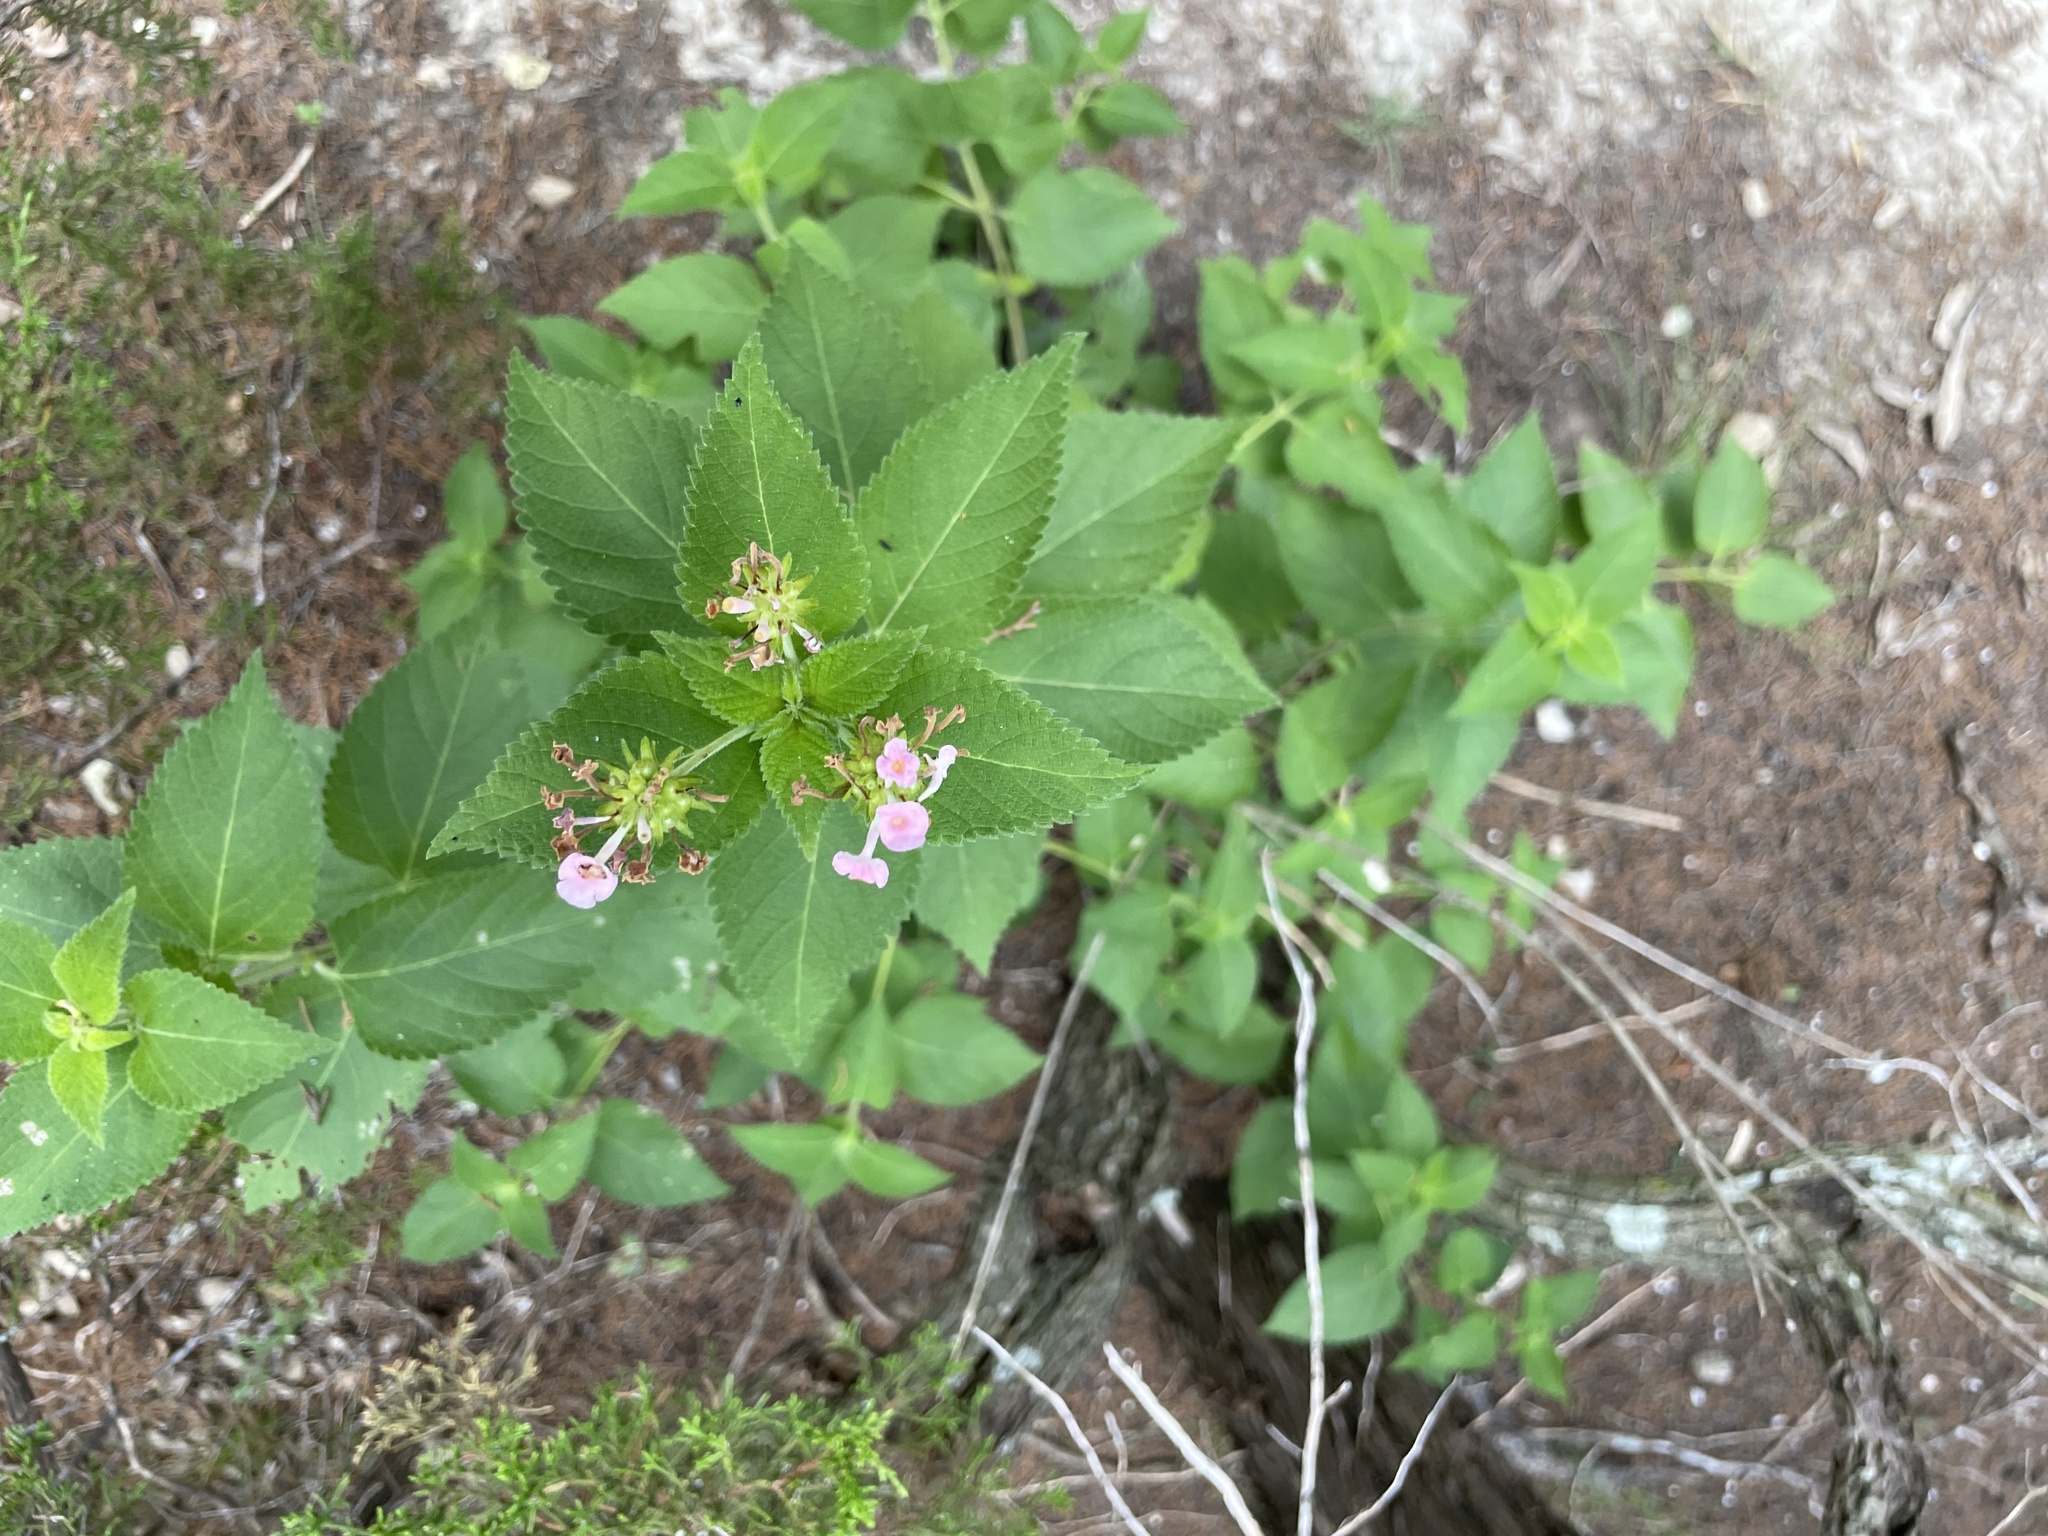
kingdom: Plantae
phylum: Tracheophyta
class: Magnoliopsida
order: Lamiales
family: Verbenaceae
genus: Lantana
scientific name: Lantana strigocamara
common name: Lantana
